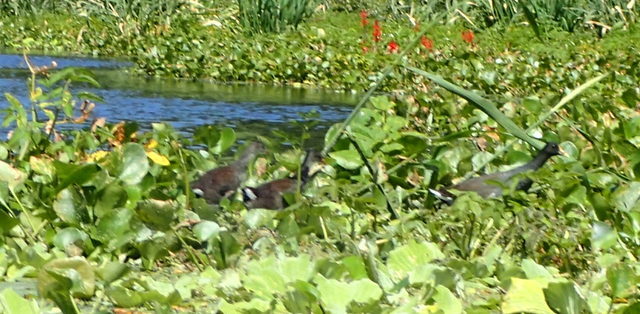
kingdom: Animalia
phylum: Chordata
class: Aves
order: Gruiformes
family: Rallidae
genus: Gallinula
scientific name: Gallinula chloropus
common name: Common moorhen
